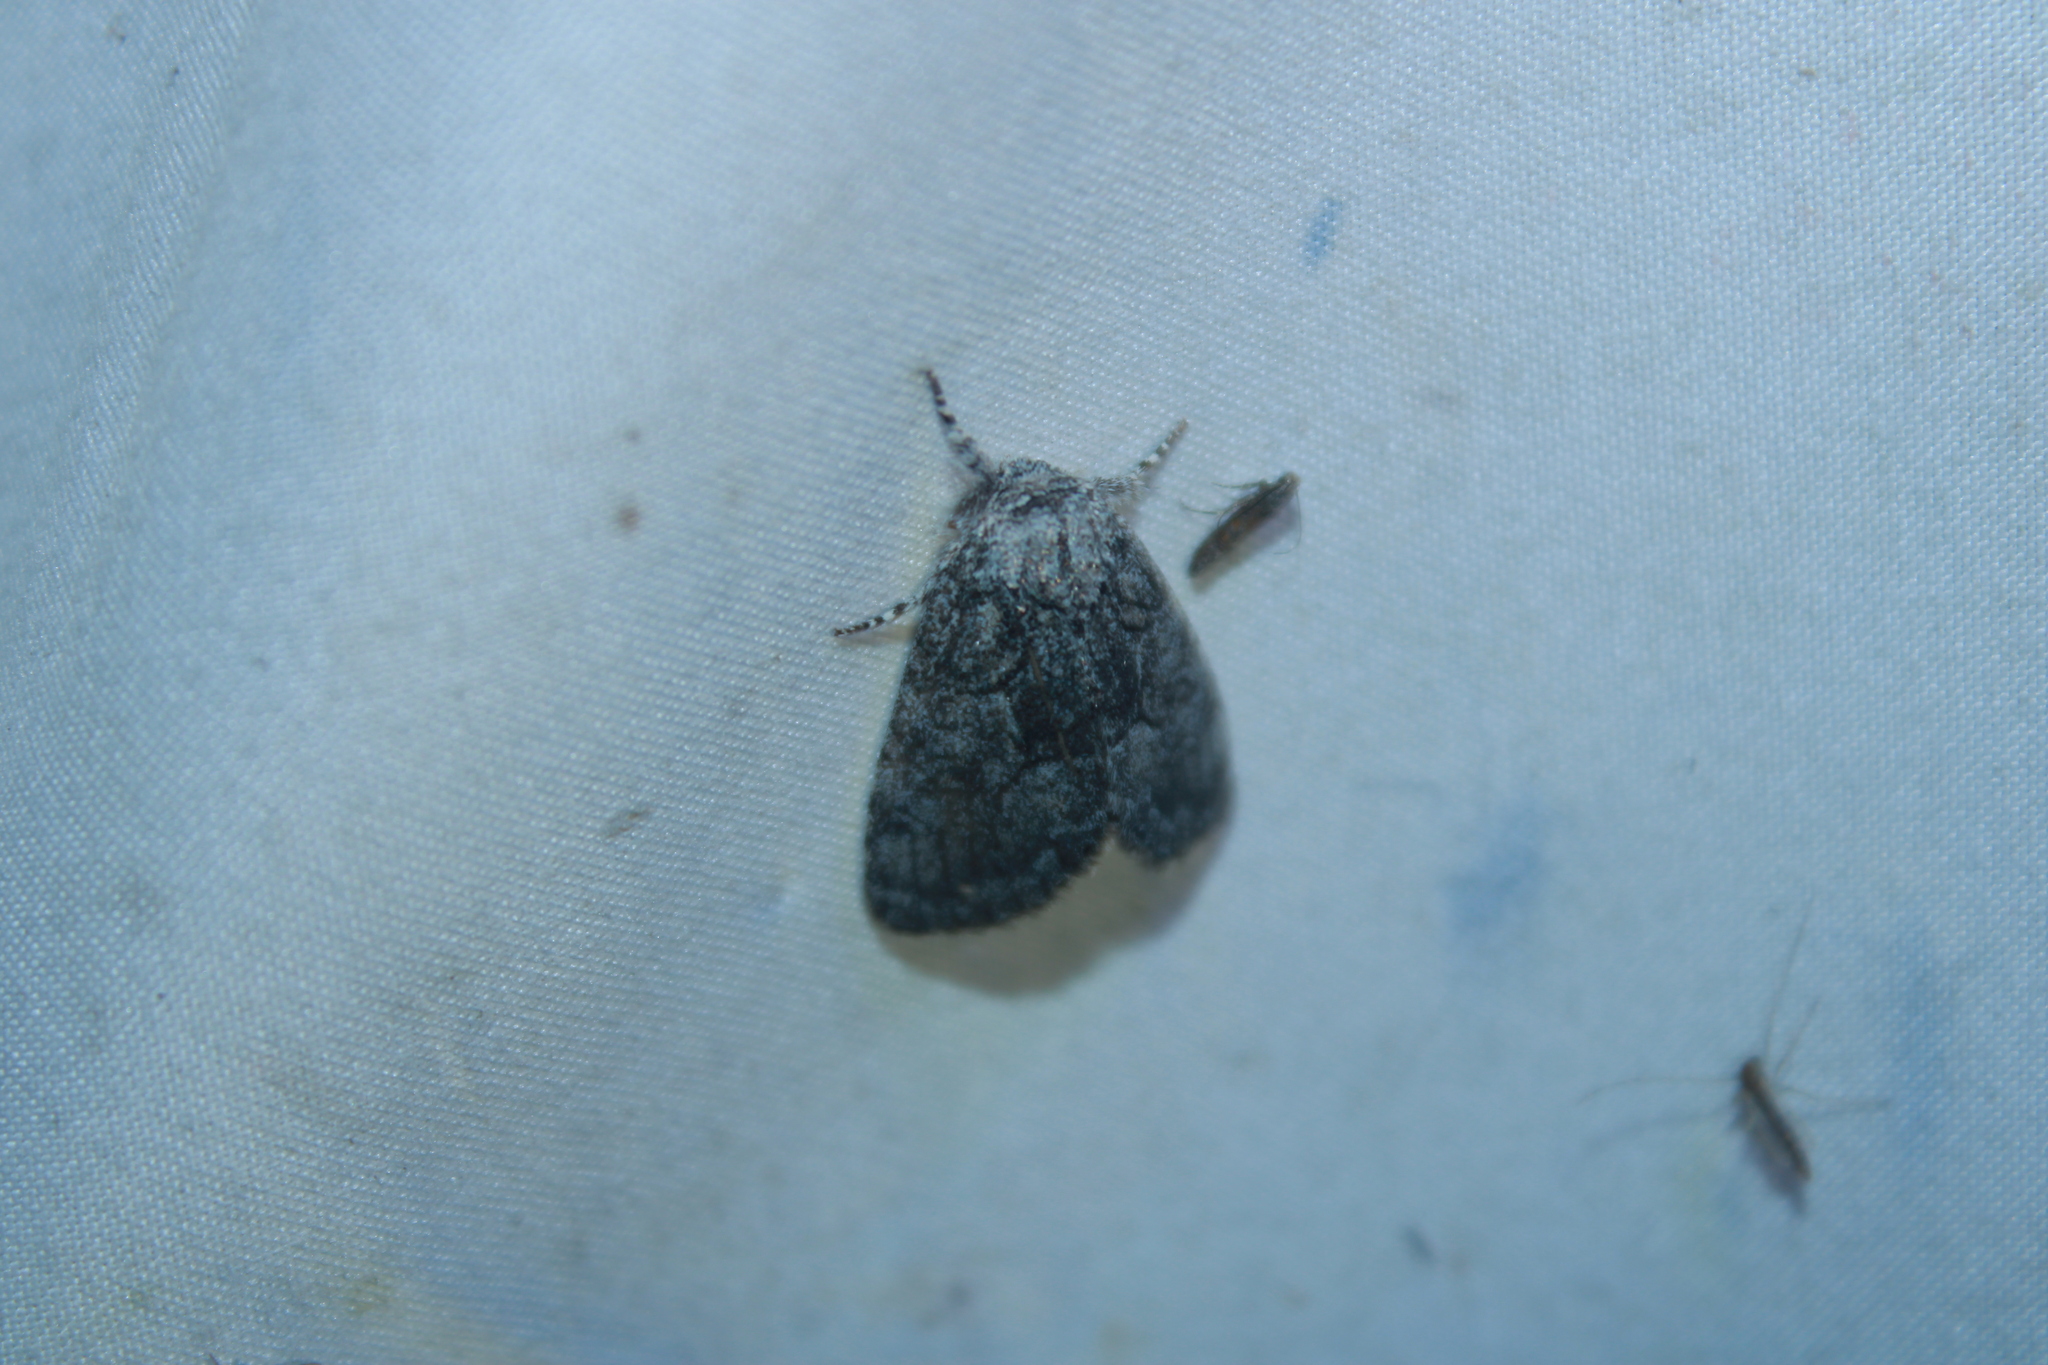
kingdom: Animalia
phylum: Arthropoda
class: Insecta
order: Lepidoptera
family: Noctuidae
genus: Raphia
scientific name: Raphia frater
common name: Brother
